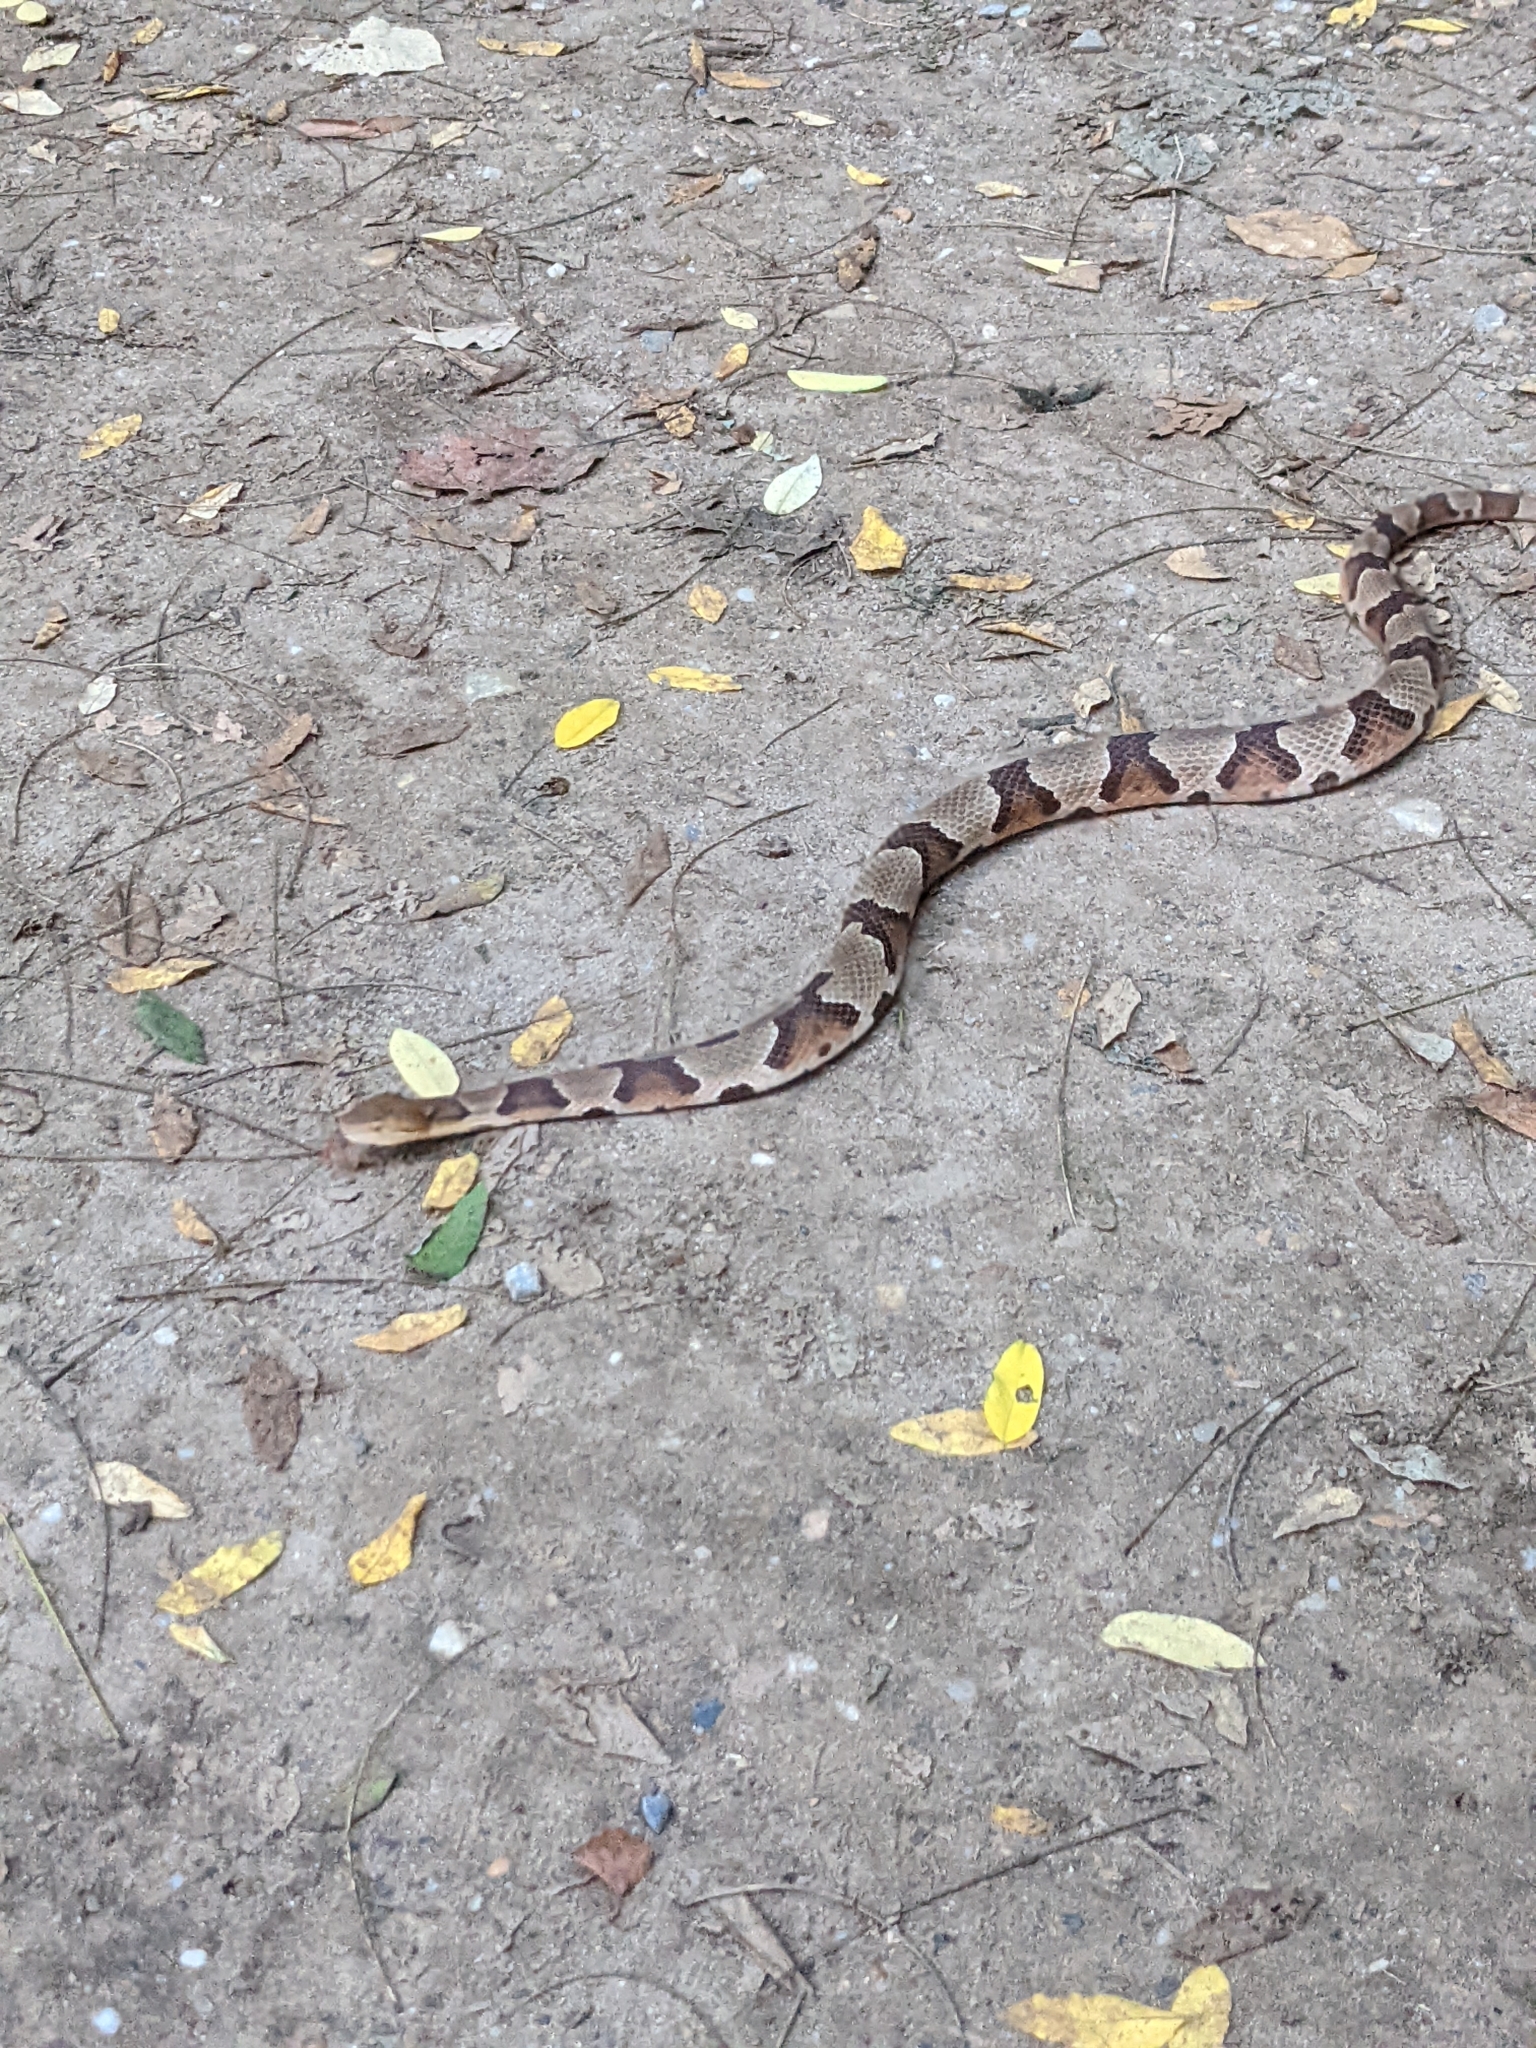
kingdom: Animalia
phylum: Chordata
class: Squamata
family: Viperidae
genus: Agkistrodon
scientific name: Agkistrodon contortrix
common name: Northern copperhead
